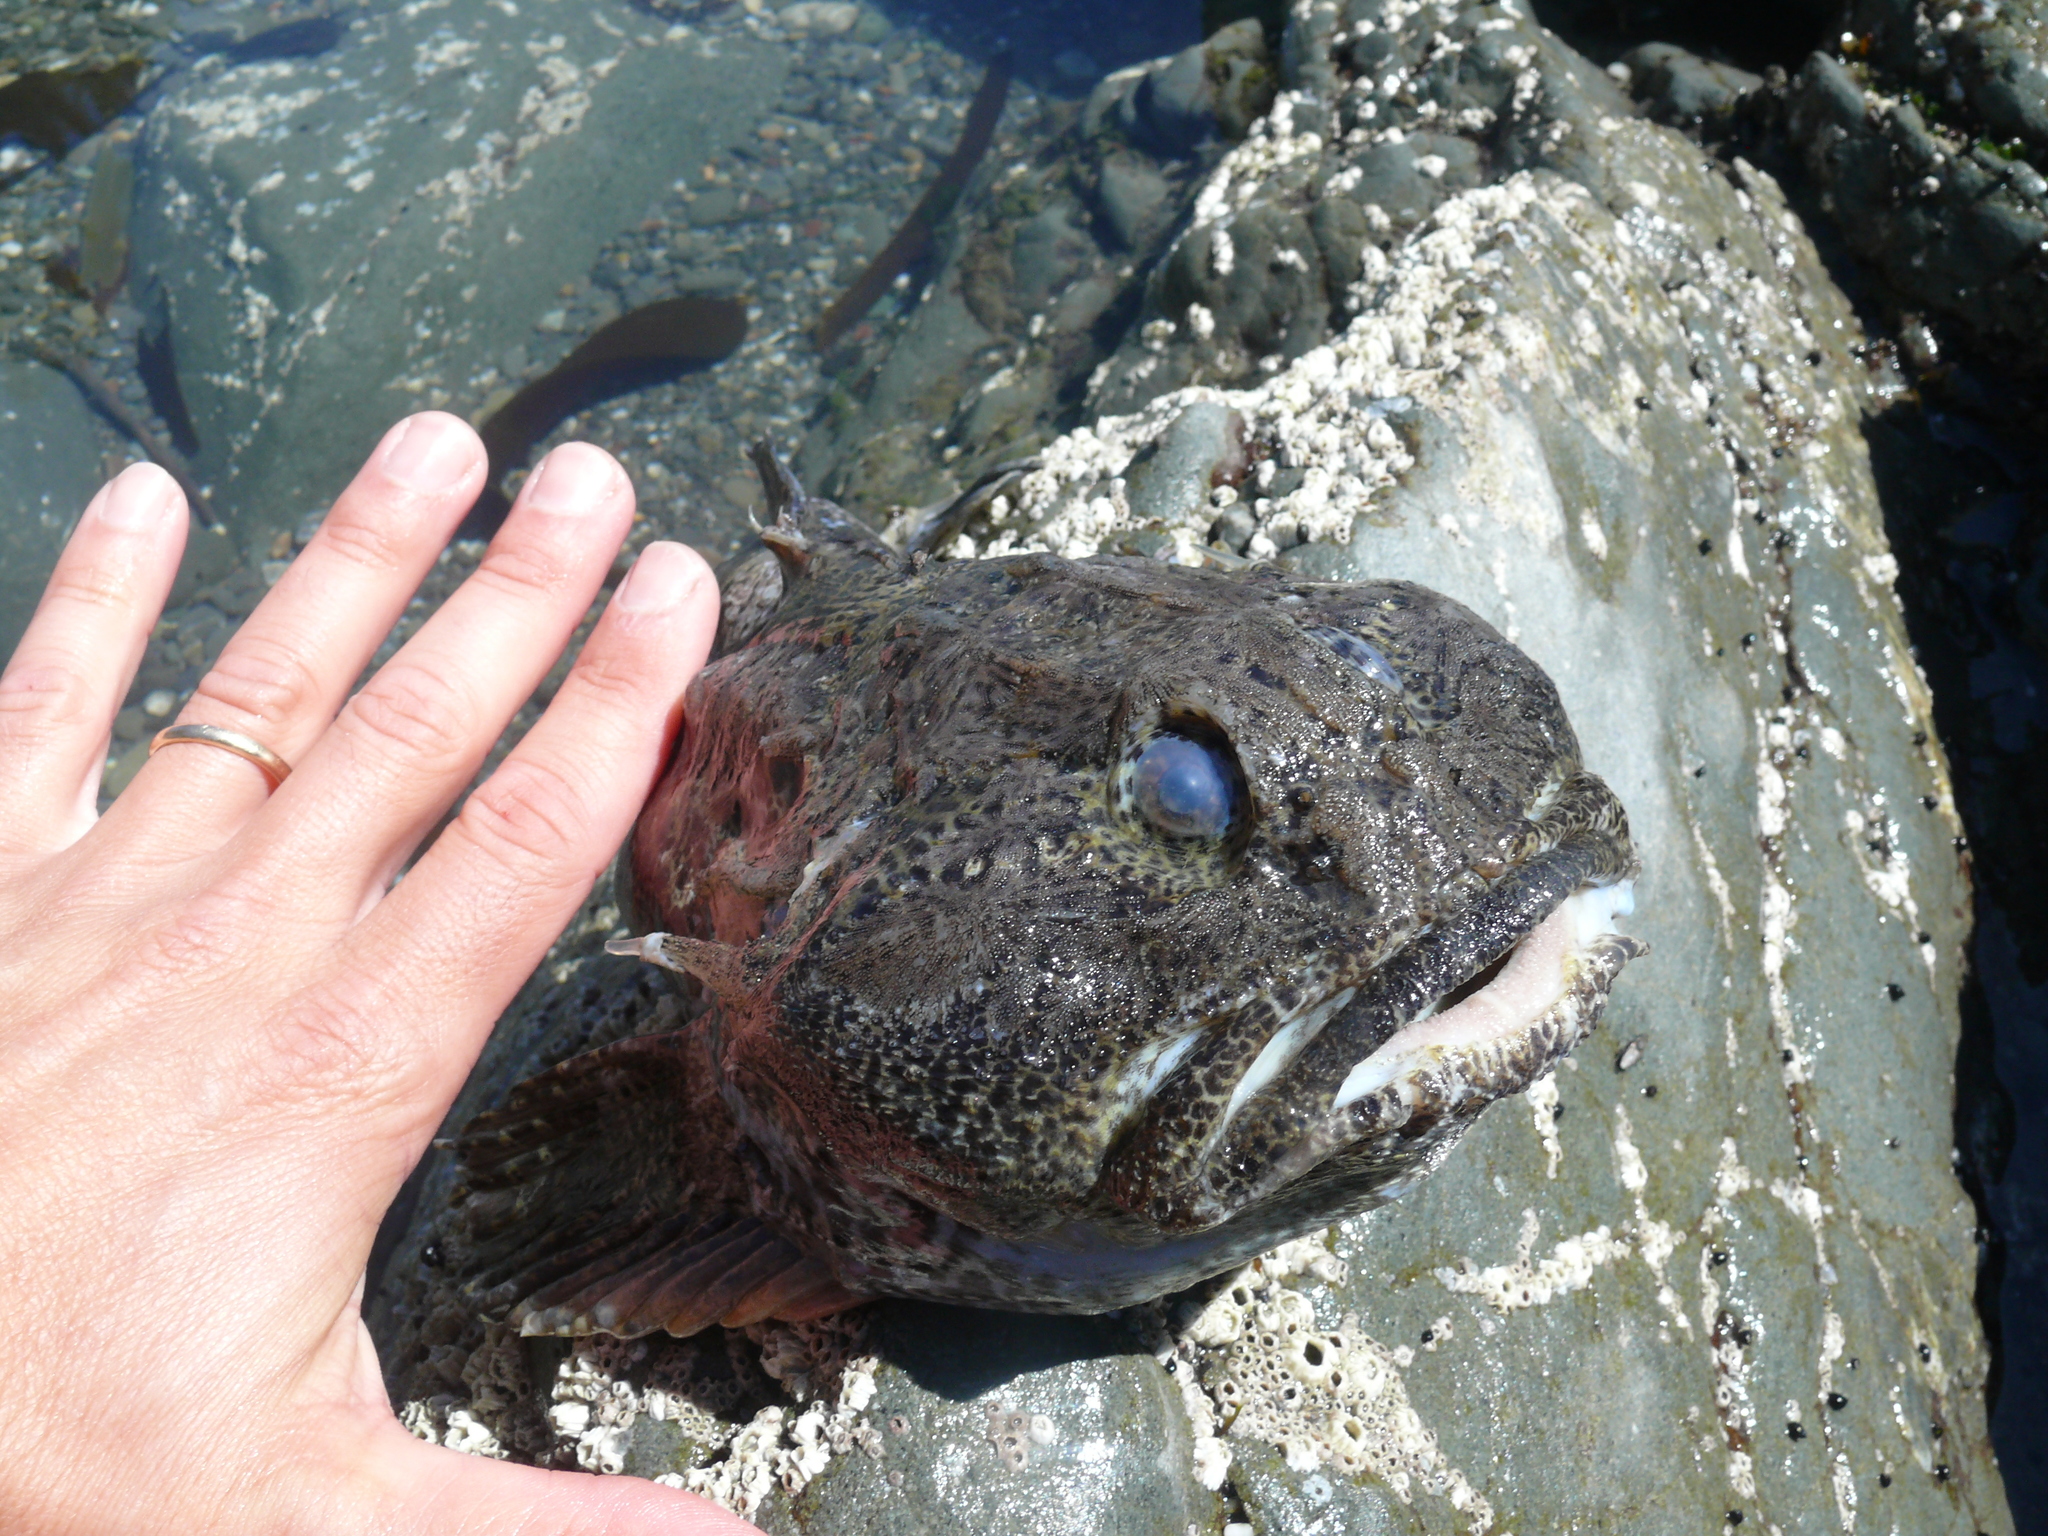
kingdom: Animalia
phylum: Chordata
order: Scorpaeniformes
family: Cottidae
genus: Enophrys
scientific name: Enophrys bison
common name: Buffalo sculpin
